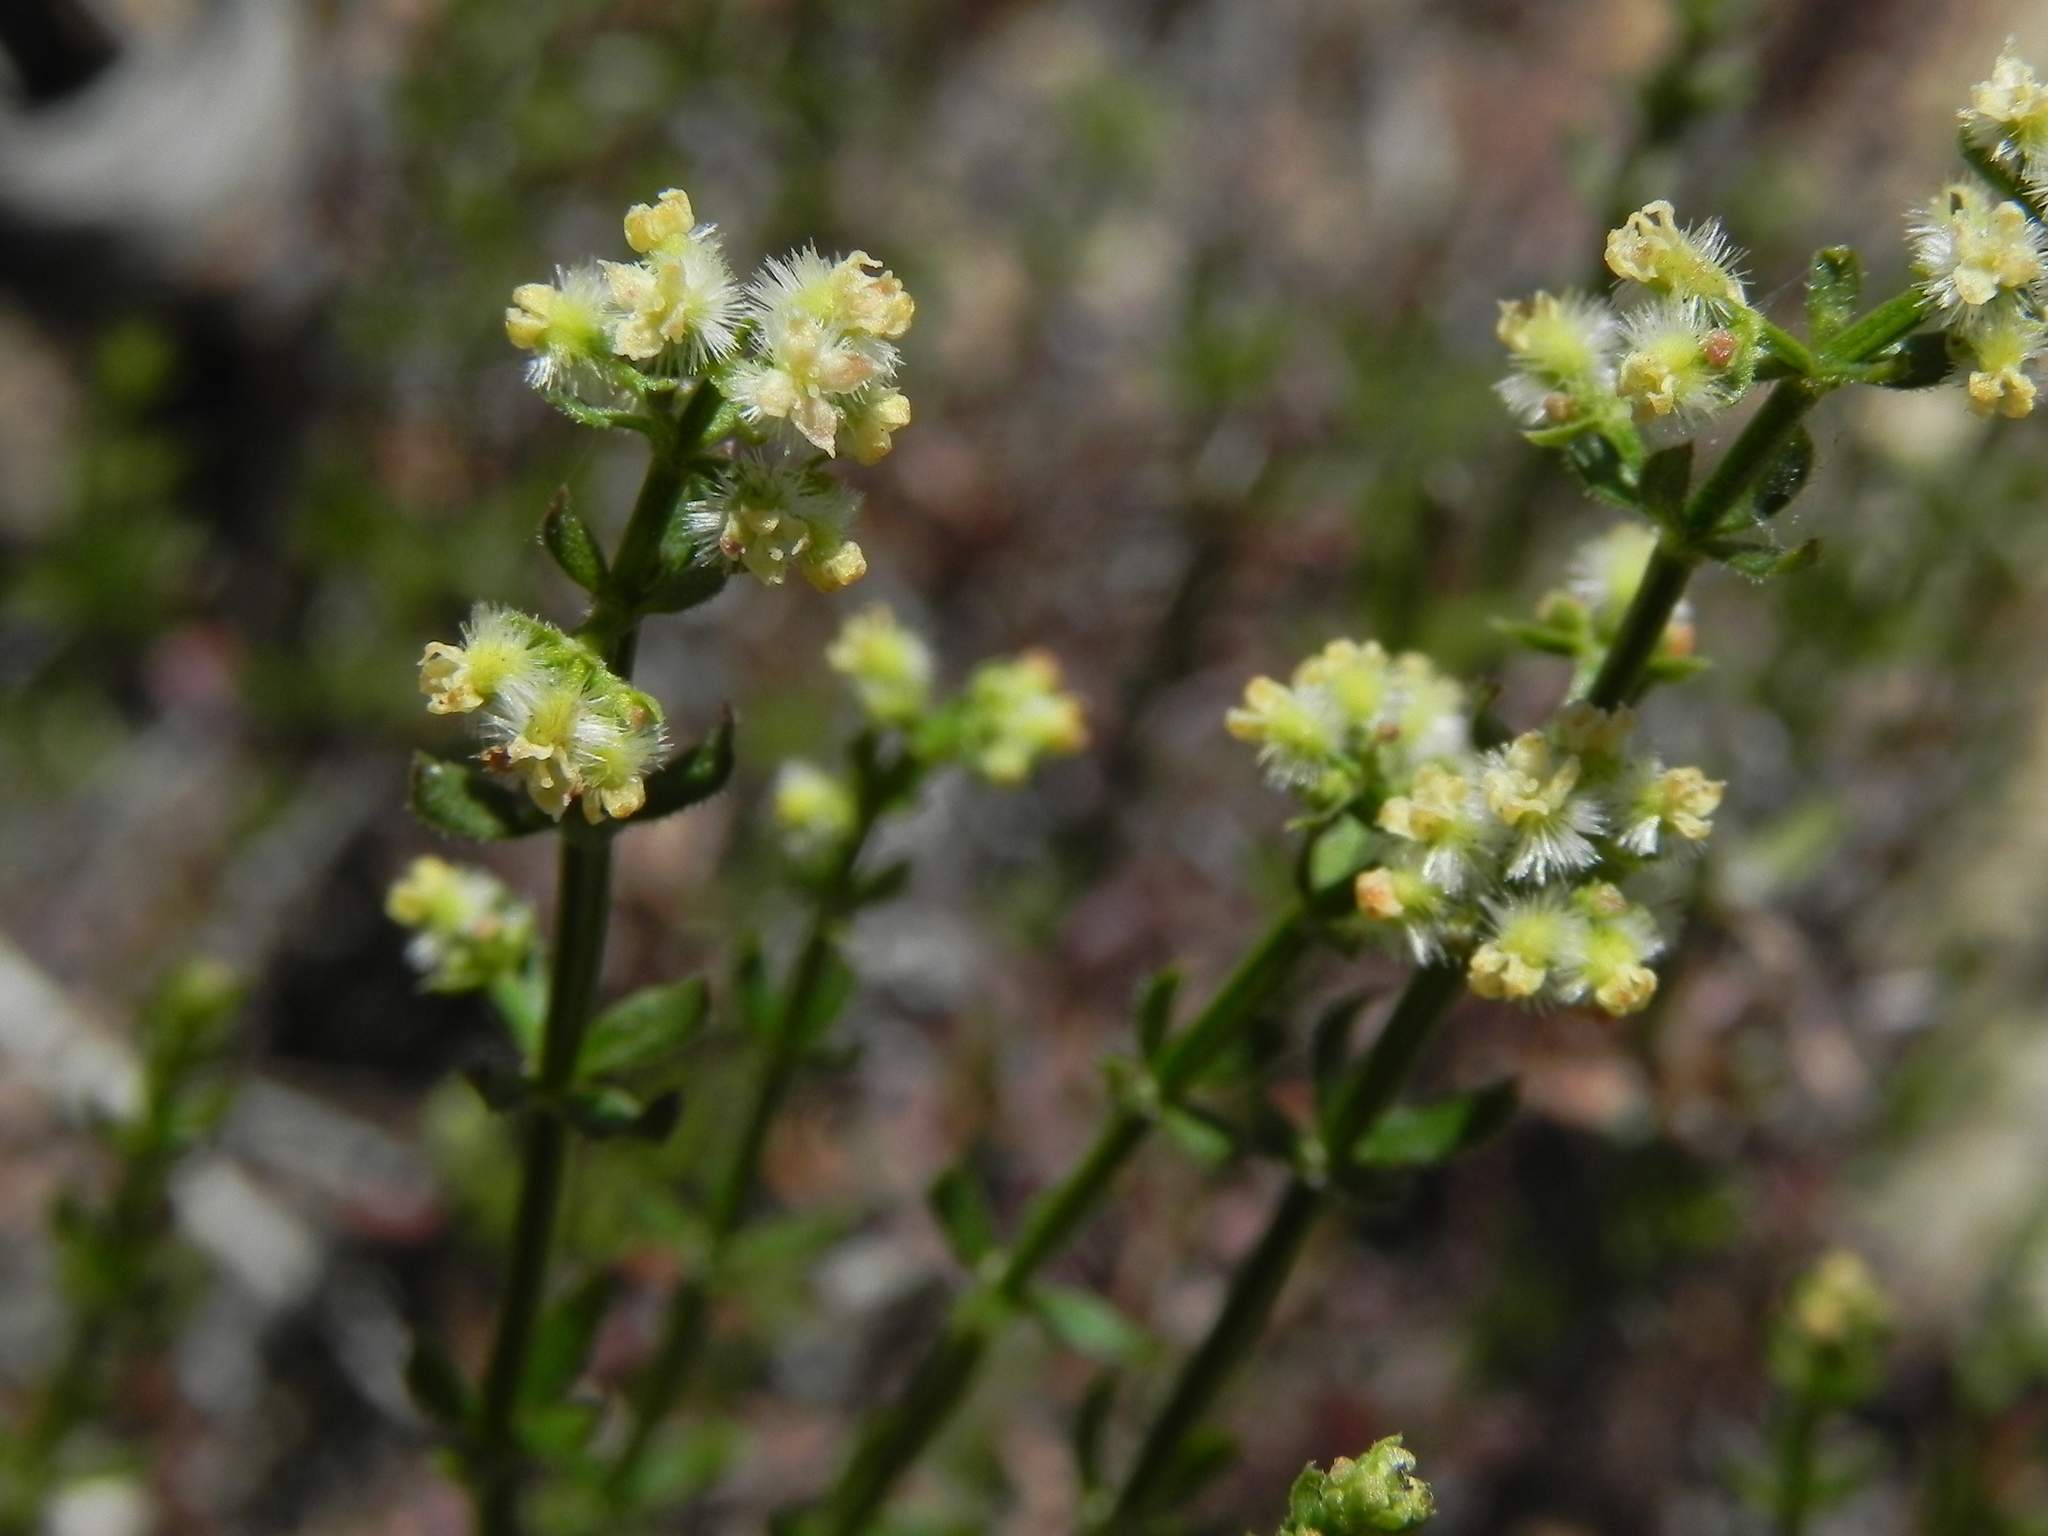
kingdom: Plantae
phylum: Tracheophyta
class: Magnoliopsida
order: Gentianales
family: Rubiaceae
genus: Galium
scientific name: Galium angustifolium
